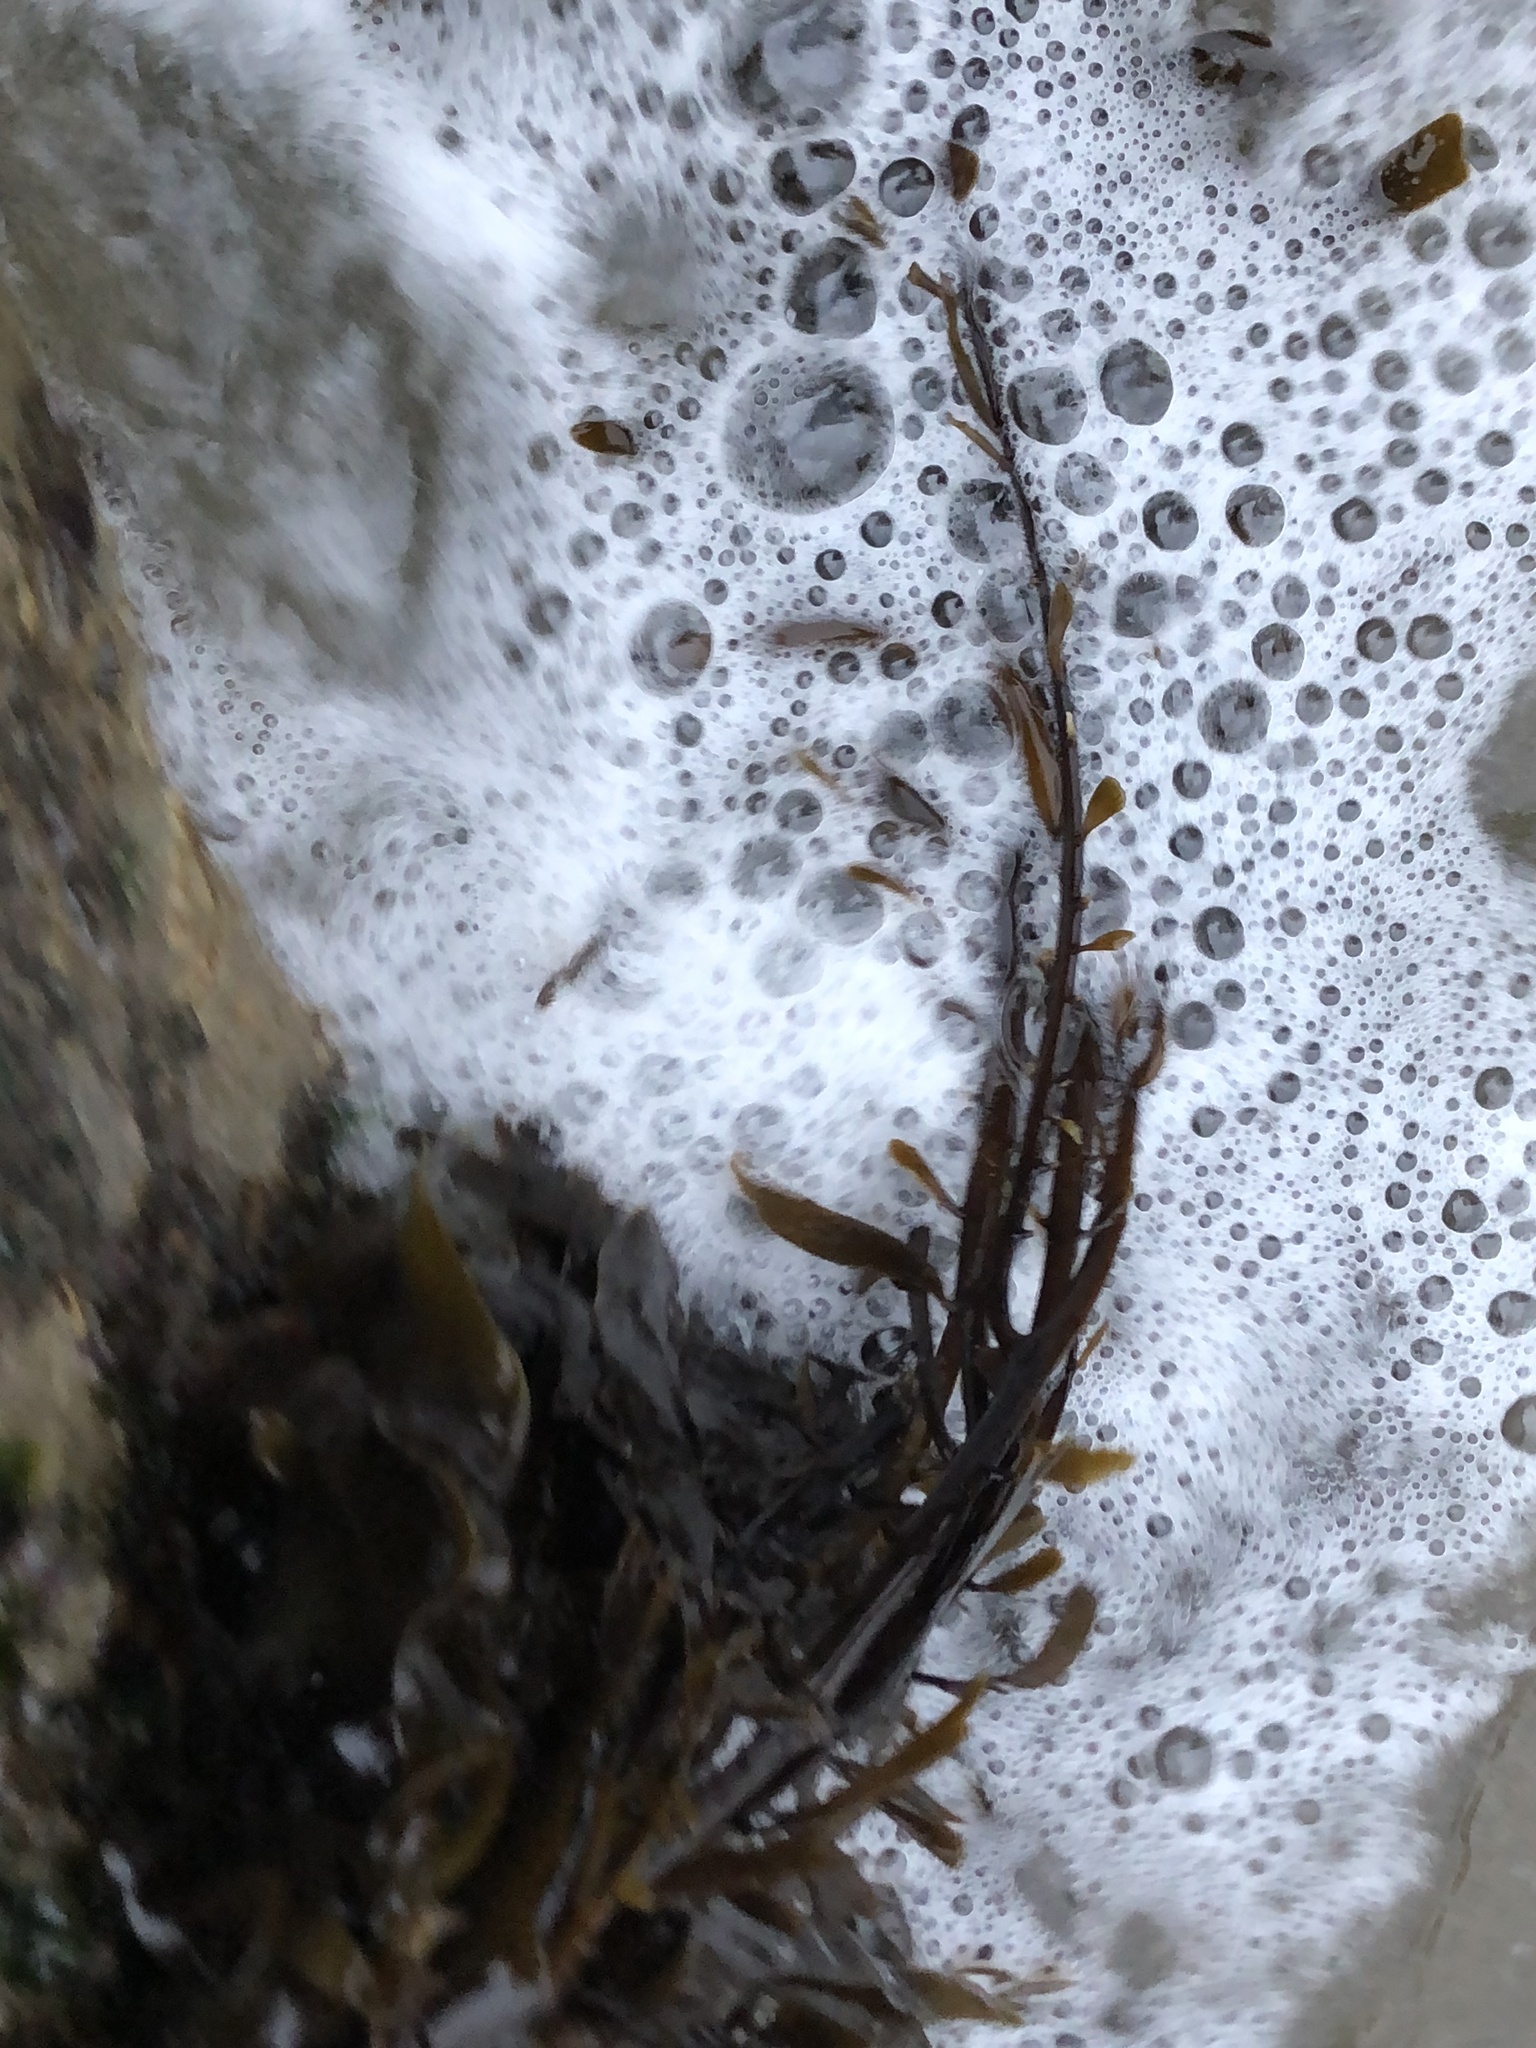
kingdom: Chromista
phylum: Ochrophyta
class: Phaeophyceae
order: Laminariales
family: Lessoniaceae
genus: Egregia
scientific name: Egregia menziesii
